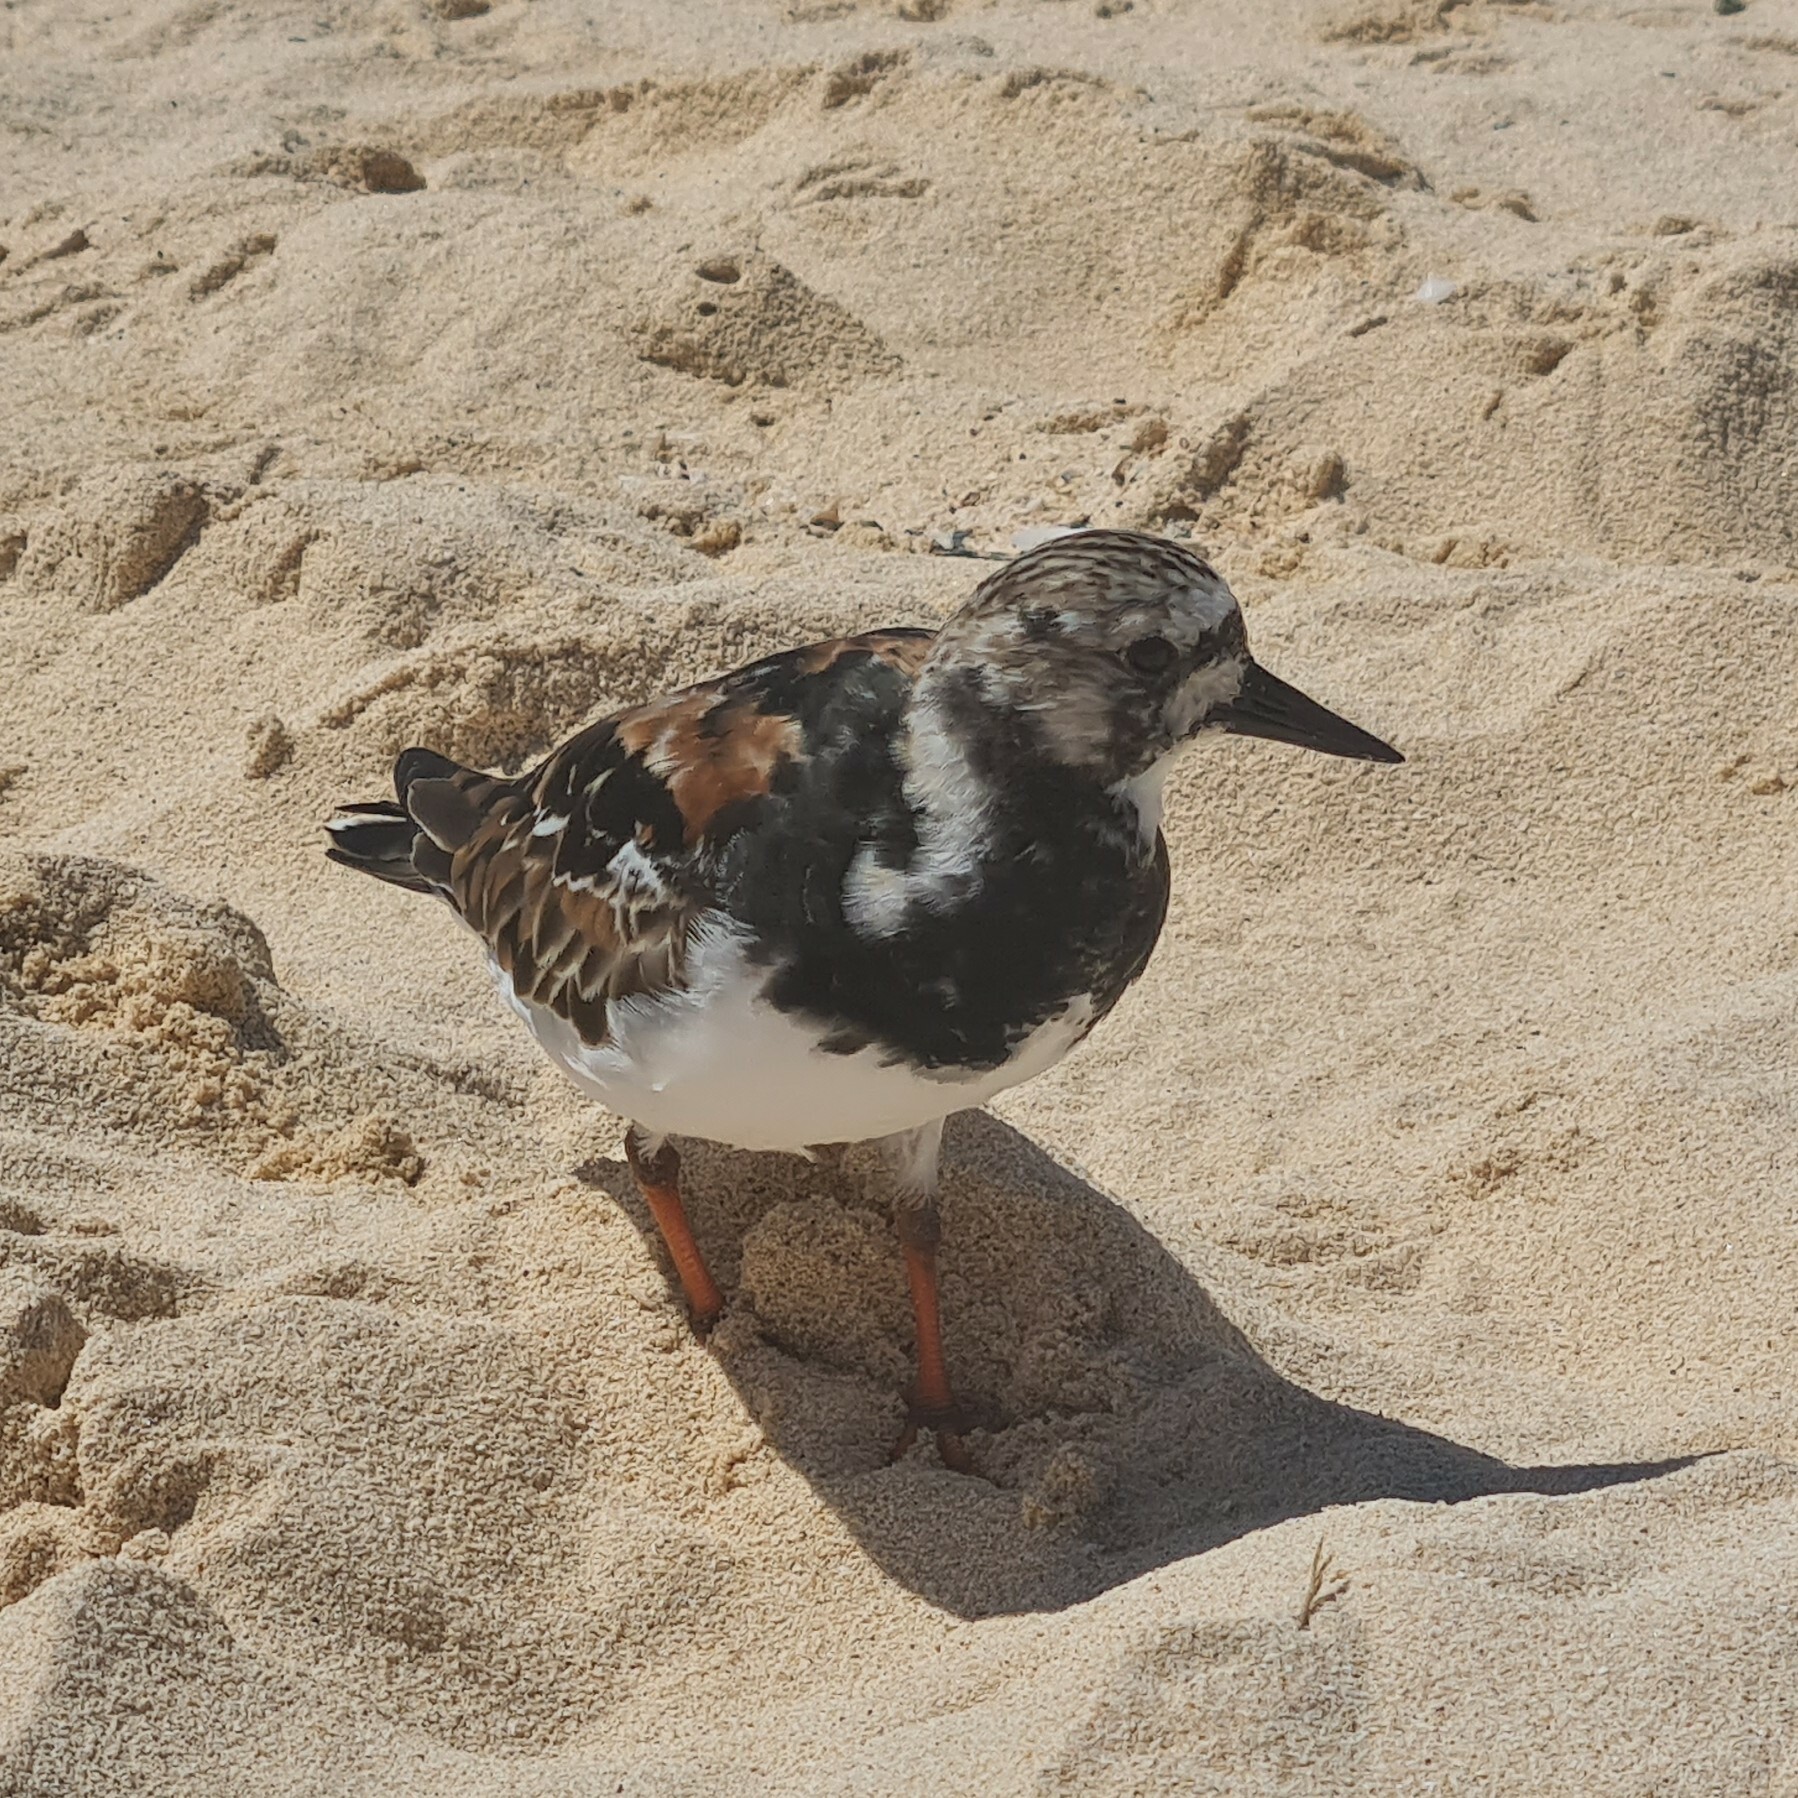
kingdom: Animalia
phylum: Chordata
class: Aves
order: Charadriiformes
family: Scolopacidae
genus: Arenaria
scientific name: Arenaria interpres
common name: Ruddy turnstone
